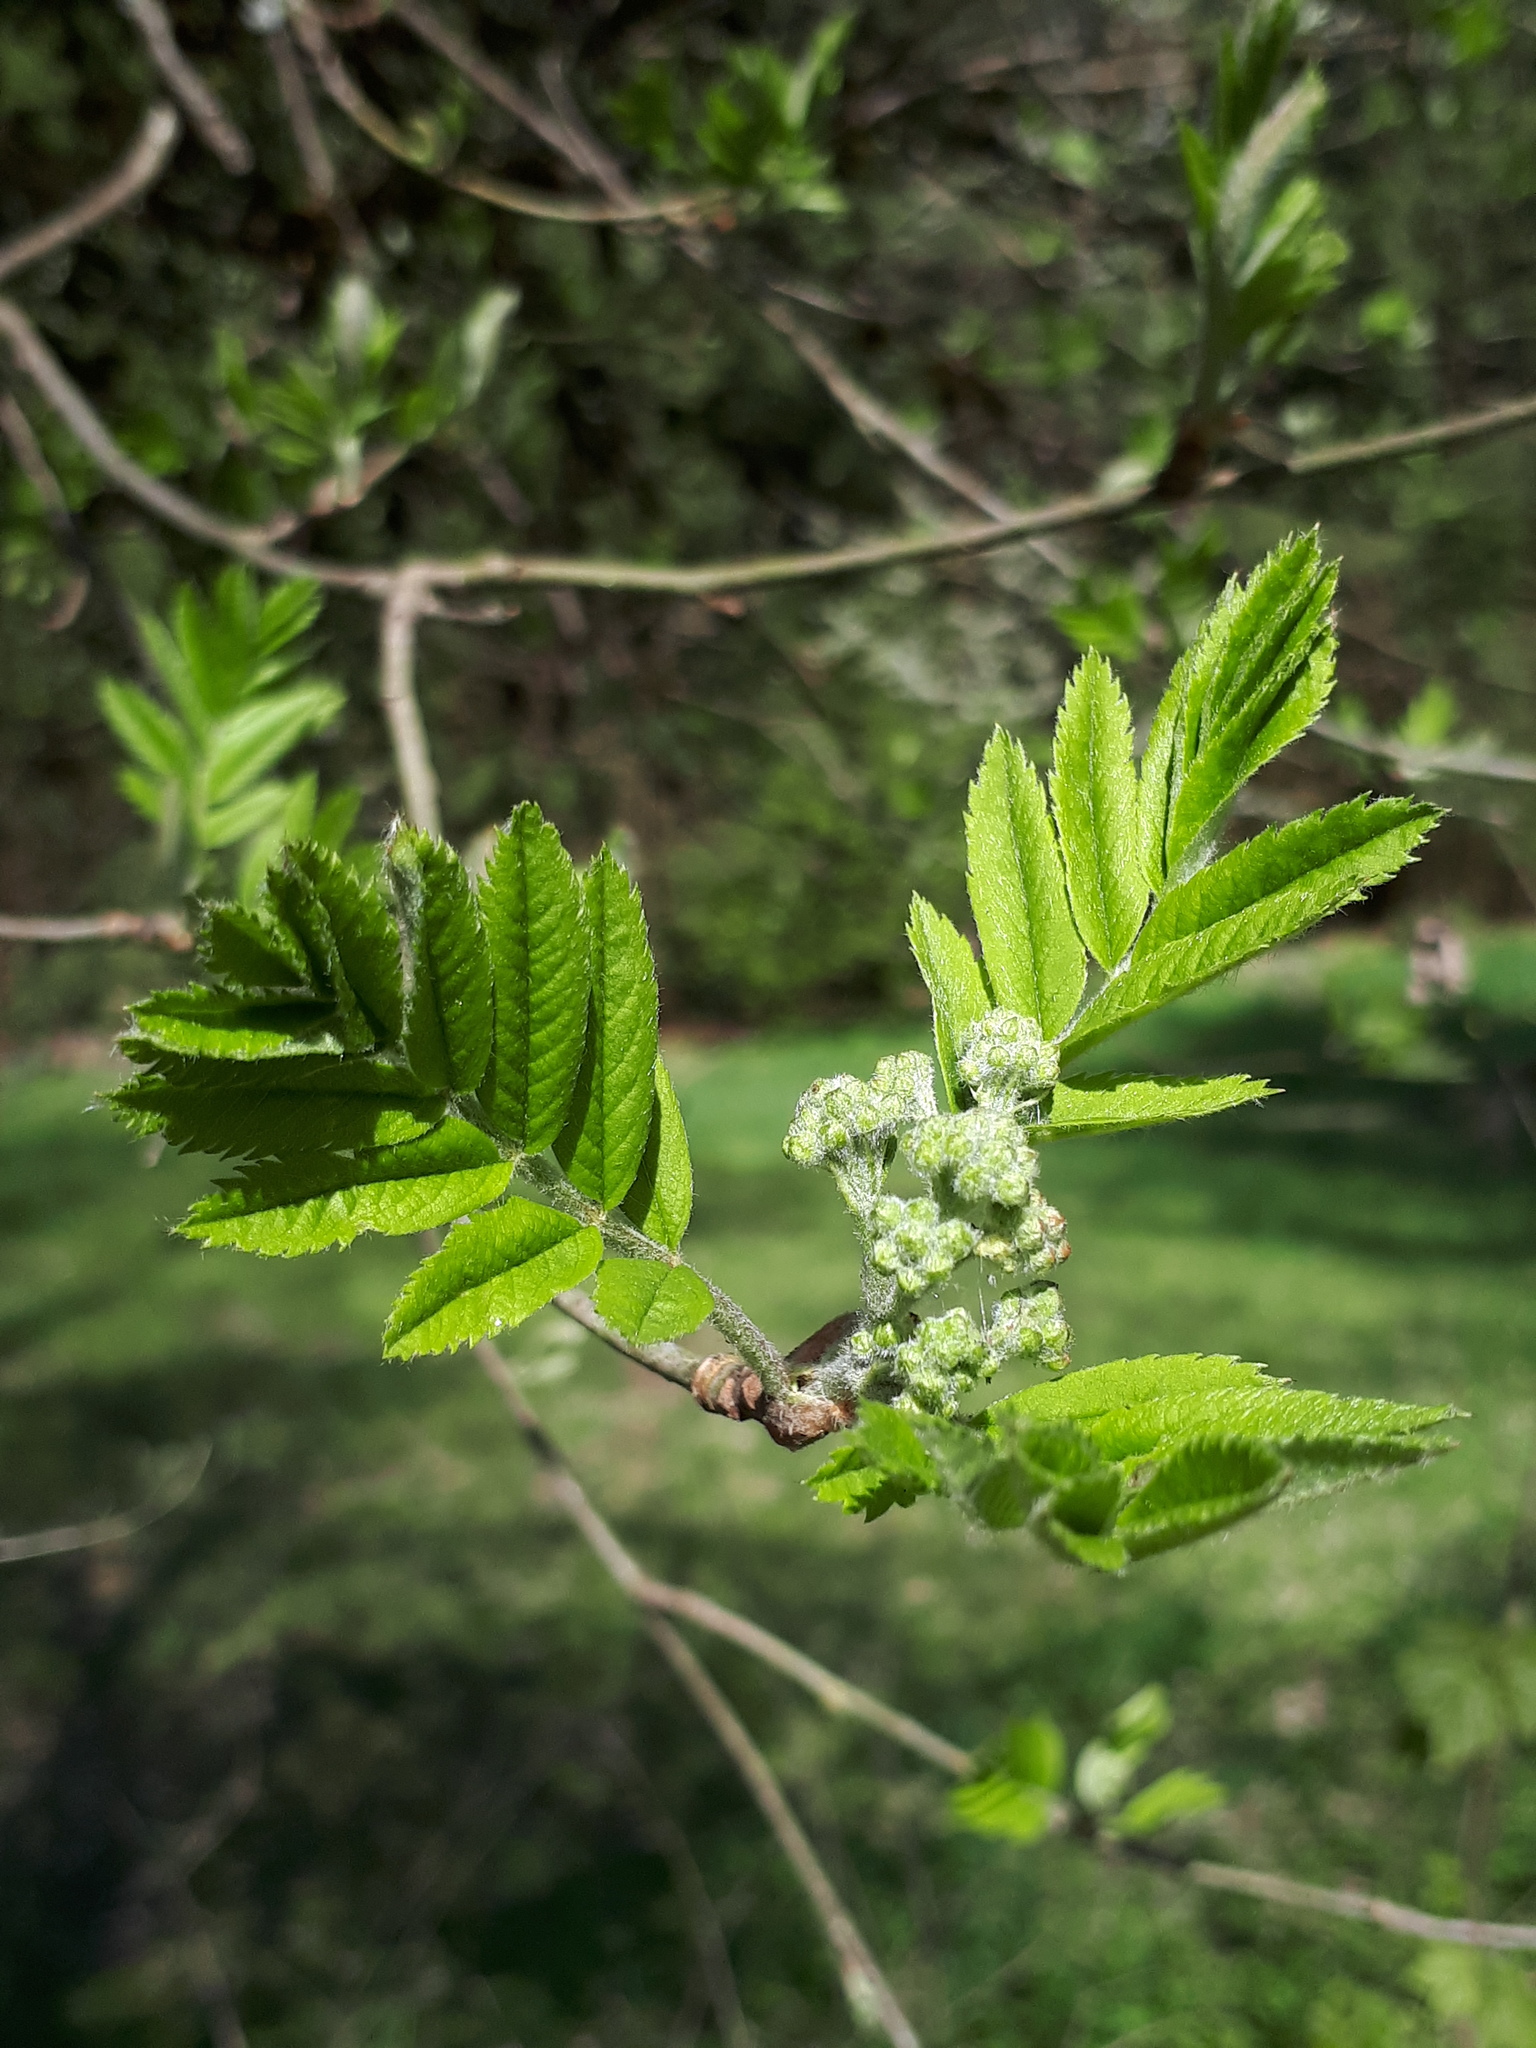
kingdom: Plantae
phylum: Tracheophyta
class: Magnoliopsida
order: Rosales
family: Rosaceae
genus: Sorbus
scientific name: Sorbus aucuparia
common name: Rowan
